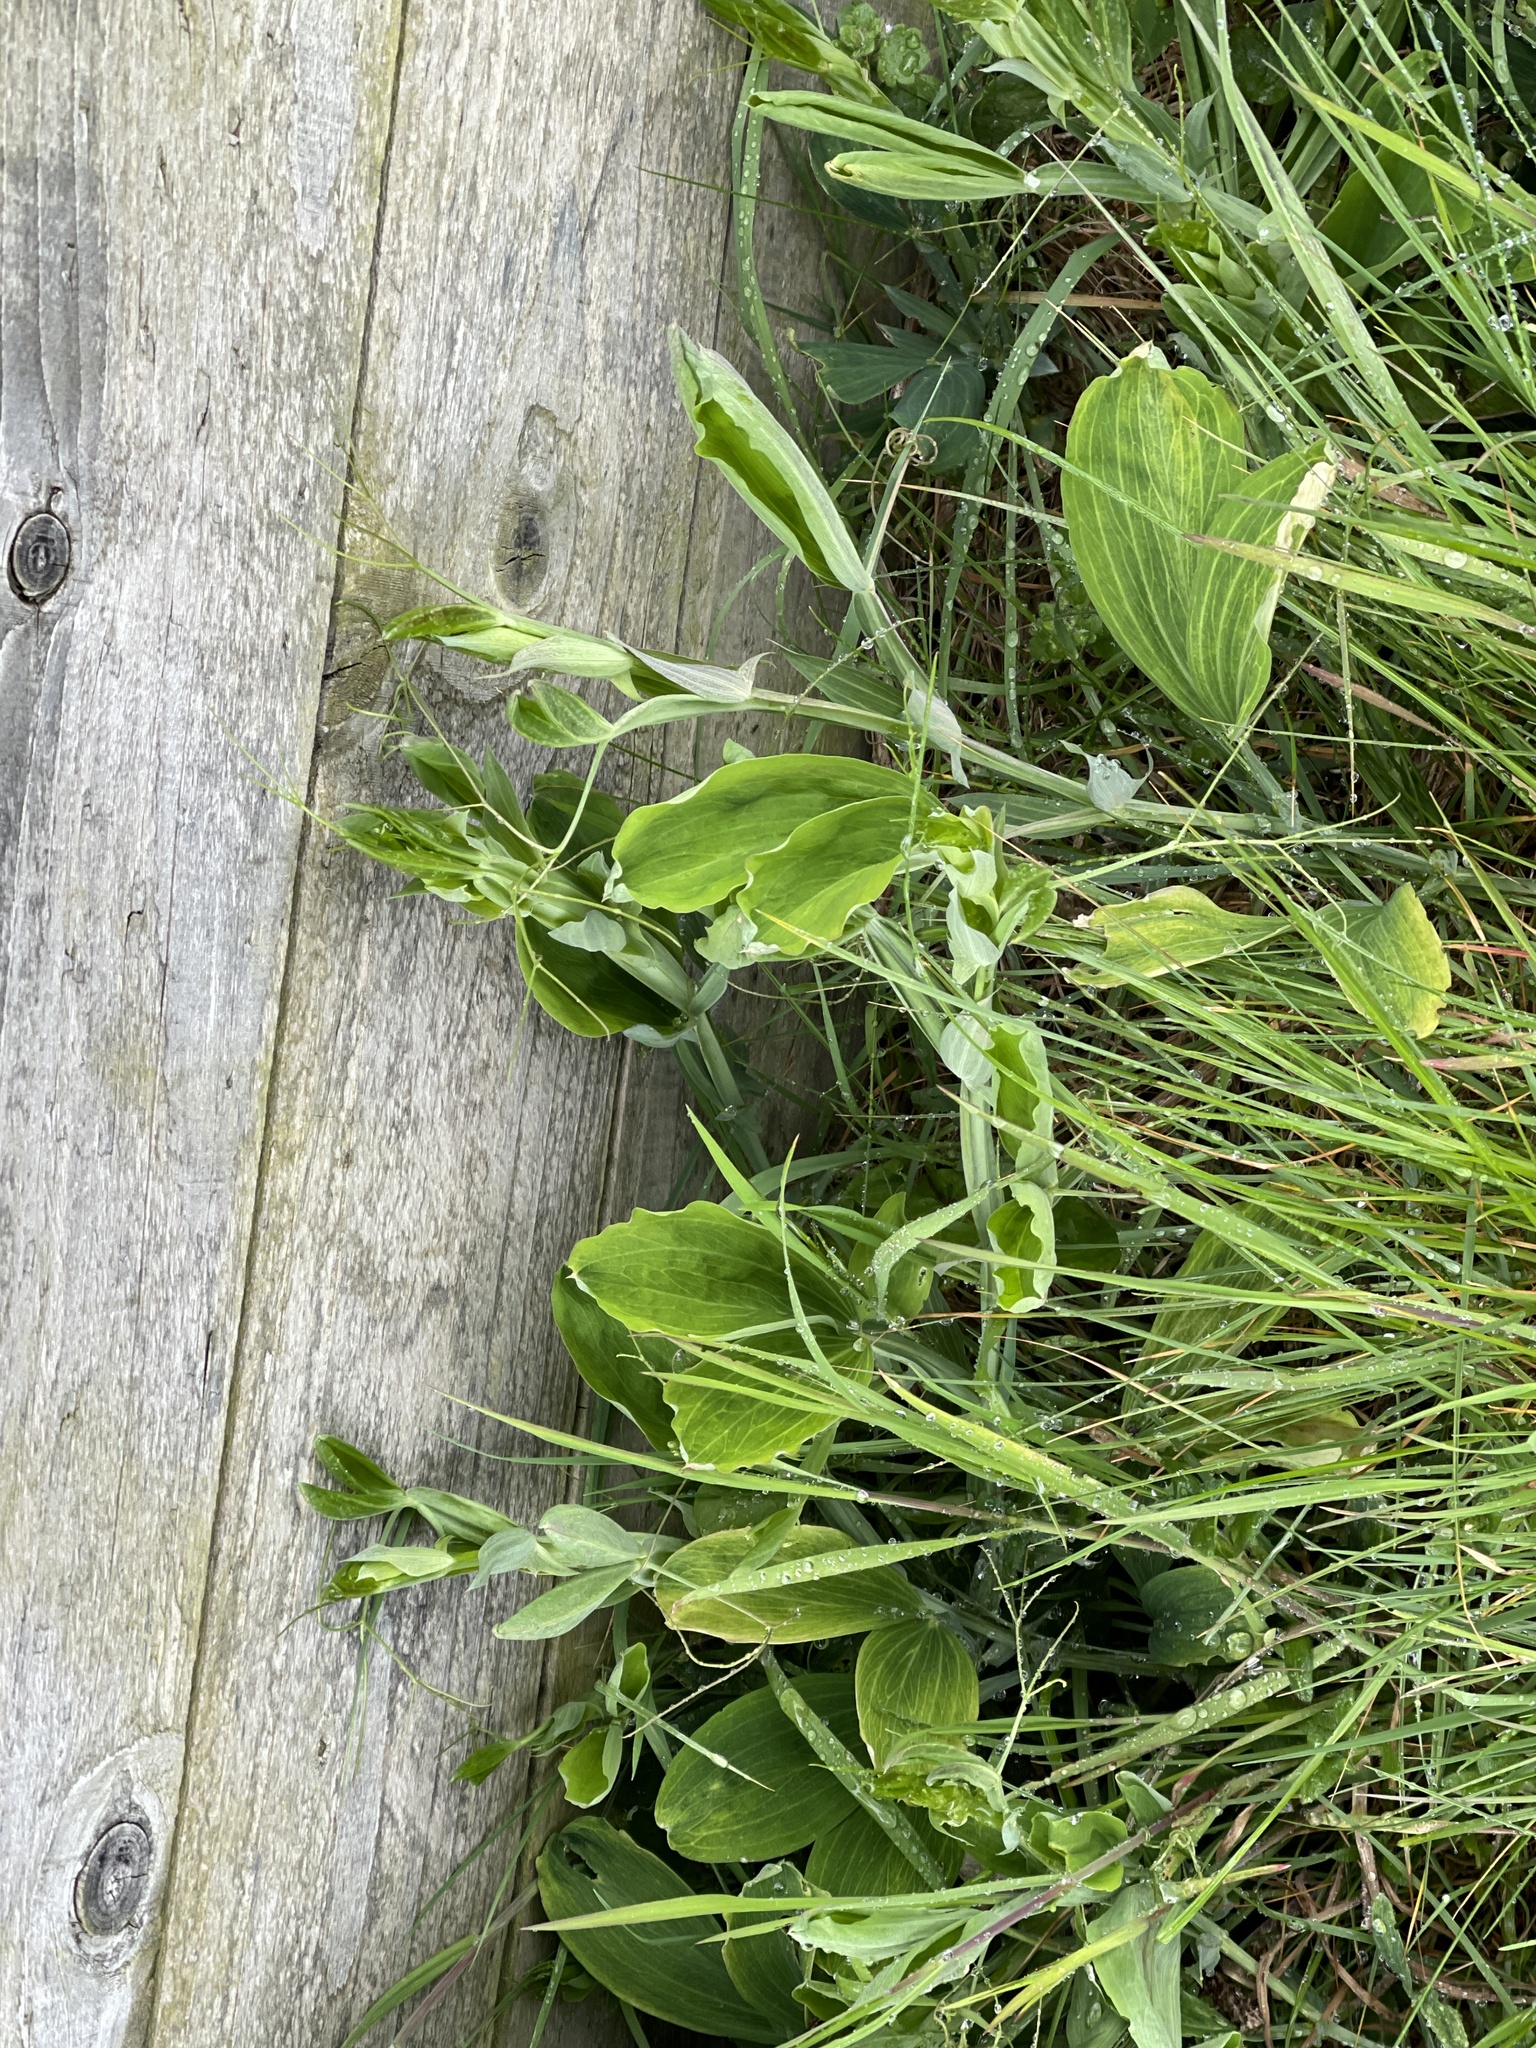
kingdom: Plantae
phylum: Tracheophyta
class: Magnoliopsida
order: Fabales
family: Fabaceae
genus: Lathyrus
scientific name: Lathyrus latifolius
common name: Perennial pea
